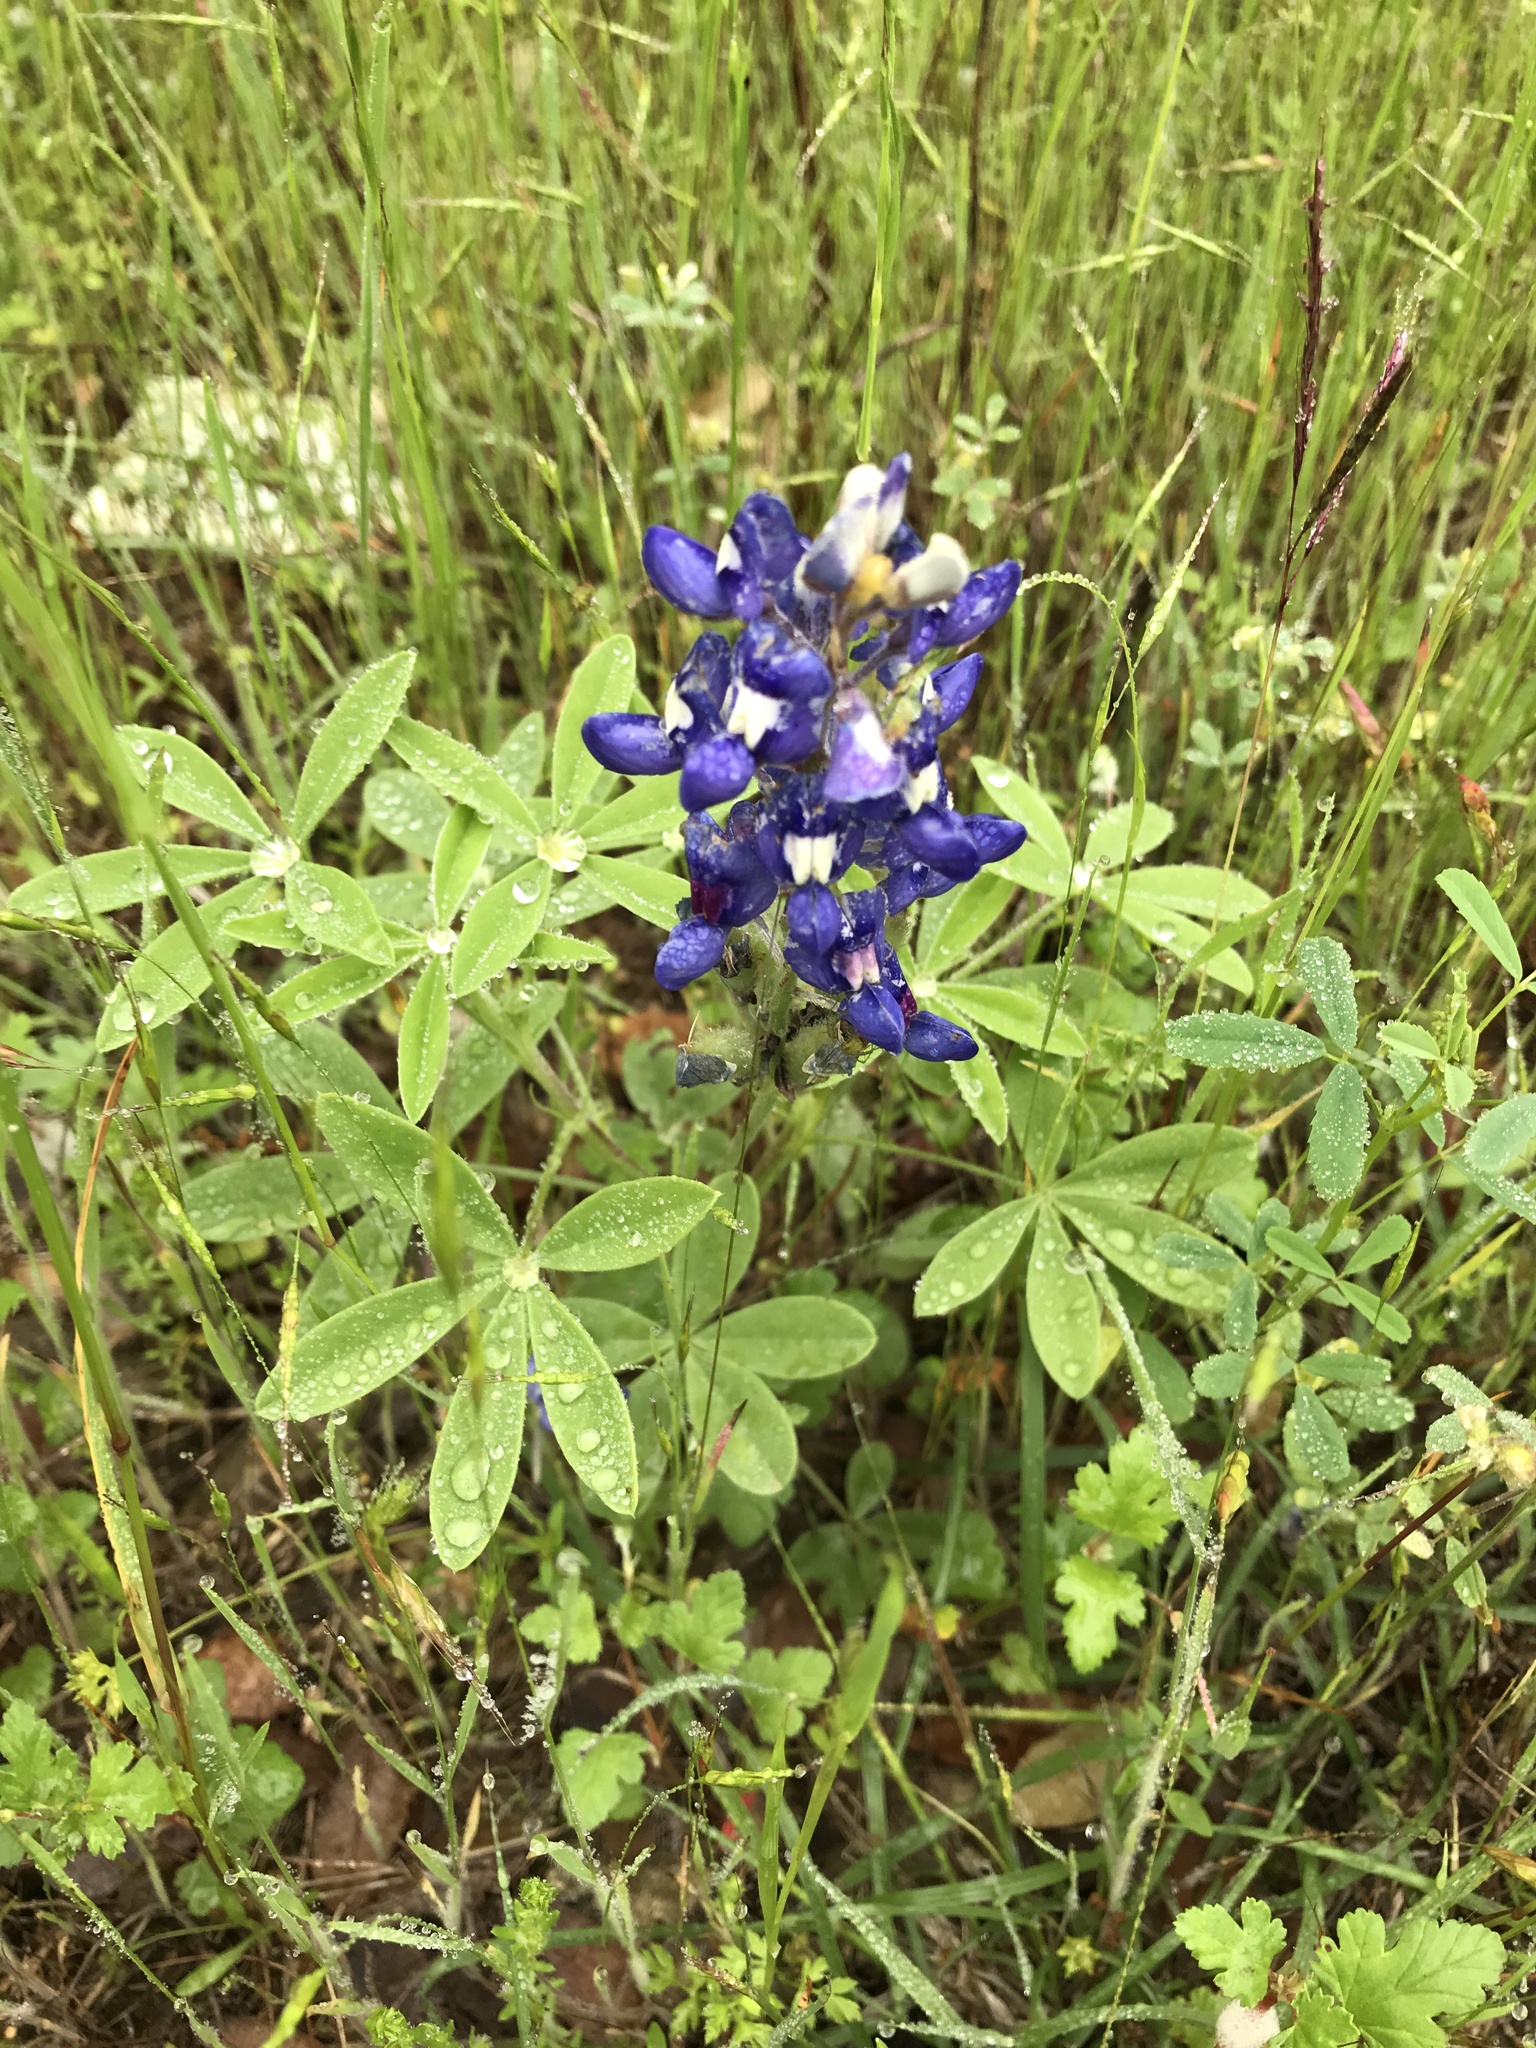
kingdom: Plantae
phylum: Tracheophyta
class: Magnoliopsida
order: Fabales
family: Fabaceae
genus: Lupinus
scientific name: Lupinus texensis
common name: Texas bluebonnet
